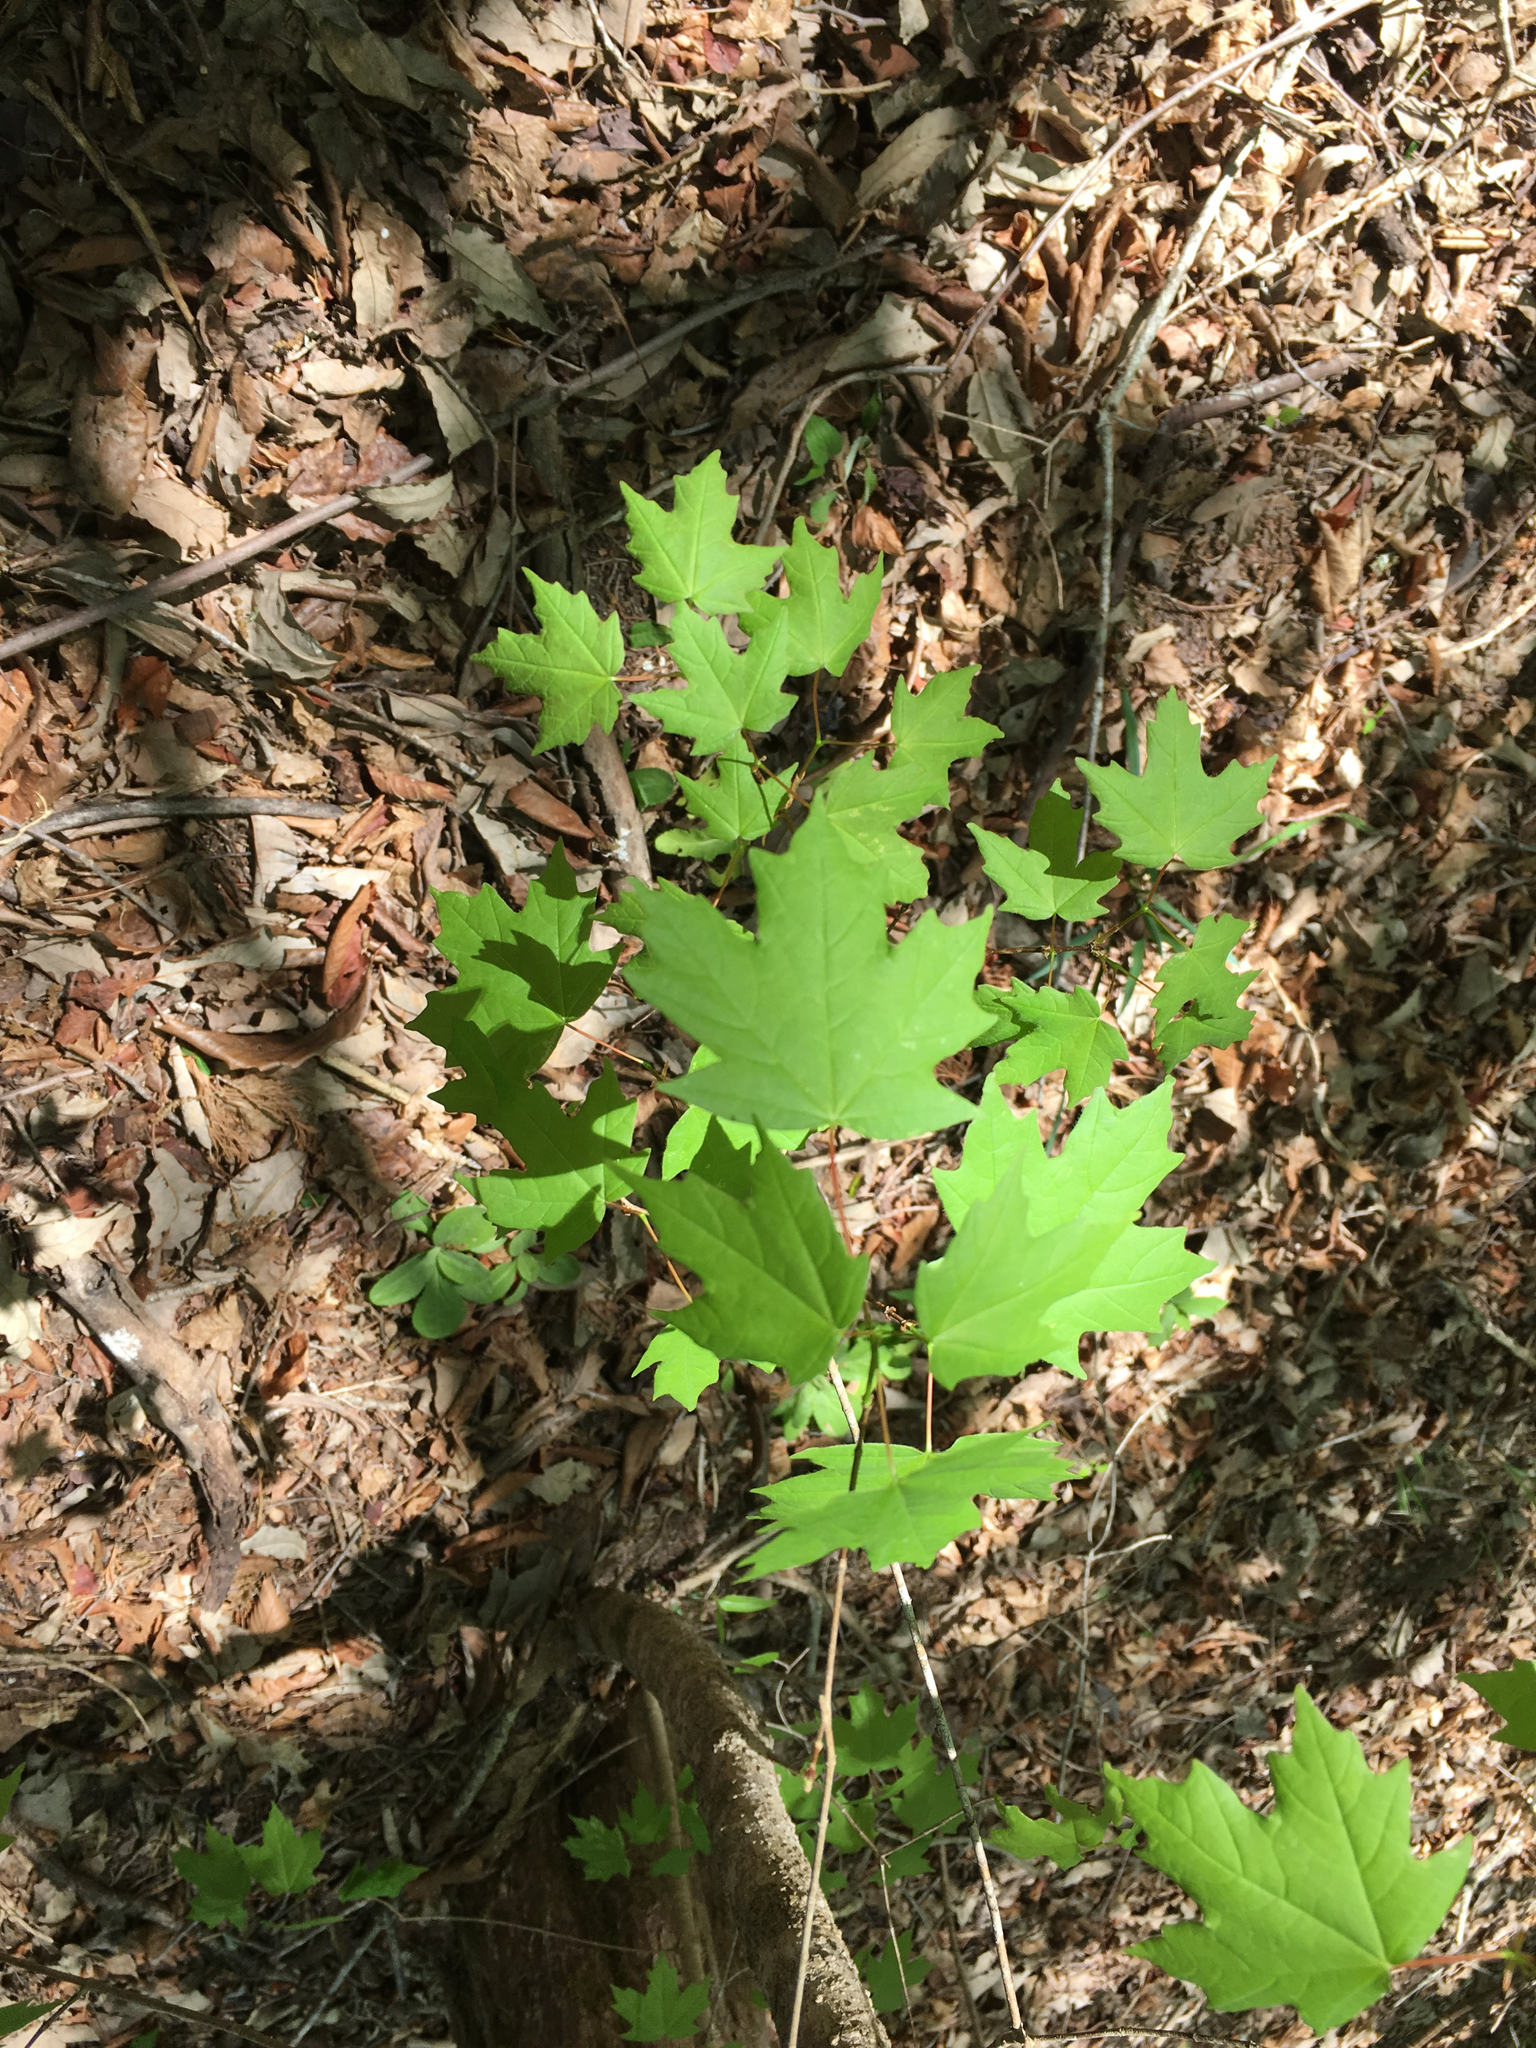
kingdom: Plantae
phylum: Tracheophyta
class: Magnoliopsida
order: Sapindales
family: Sapindaceae
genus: Acer
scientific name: Acer leucoderme
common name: Chalk maple
